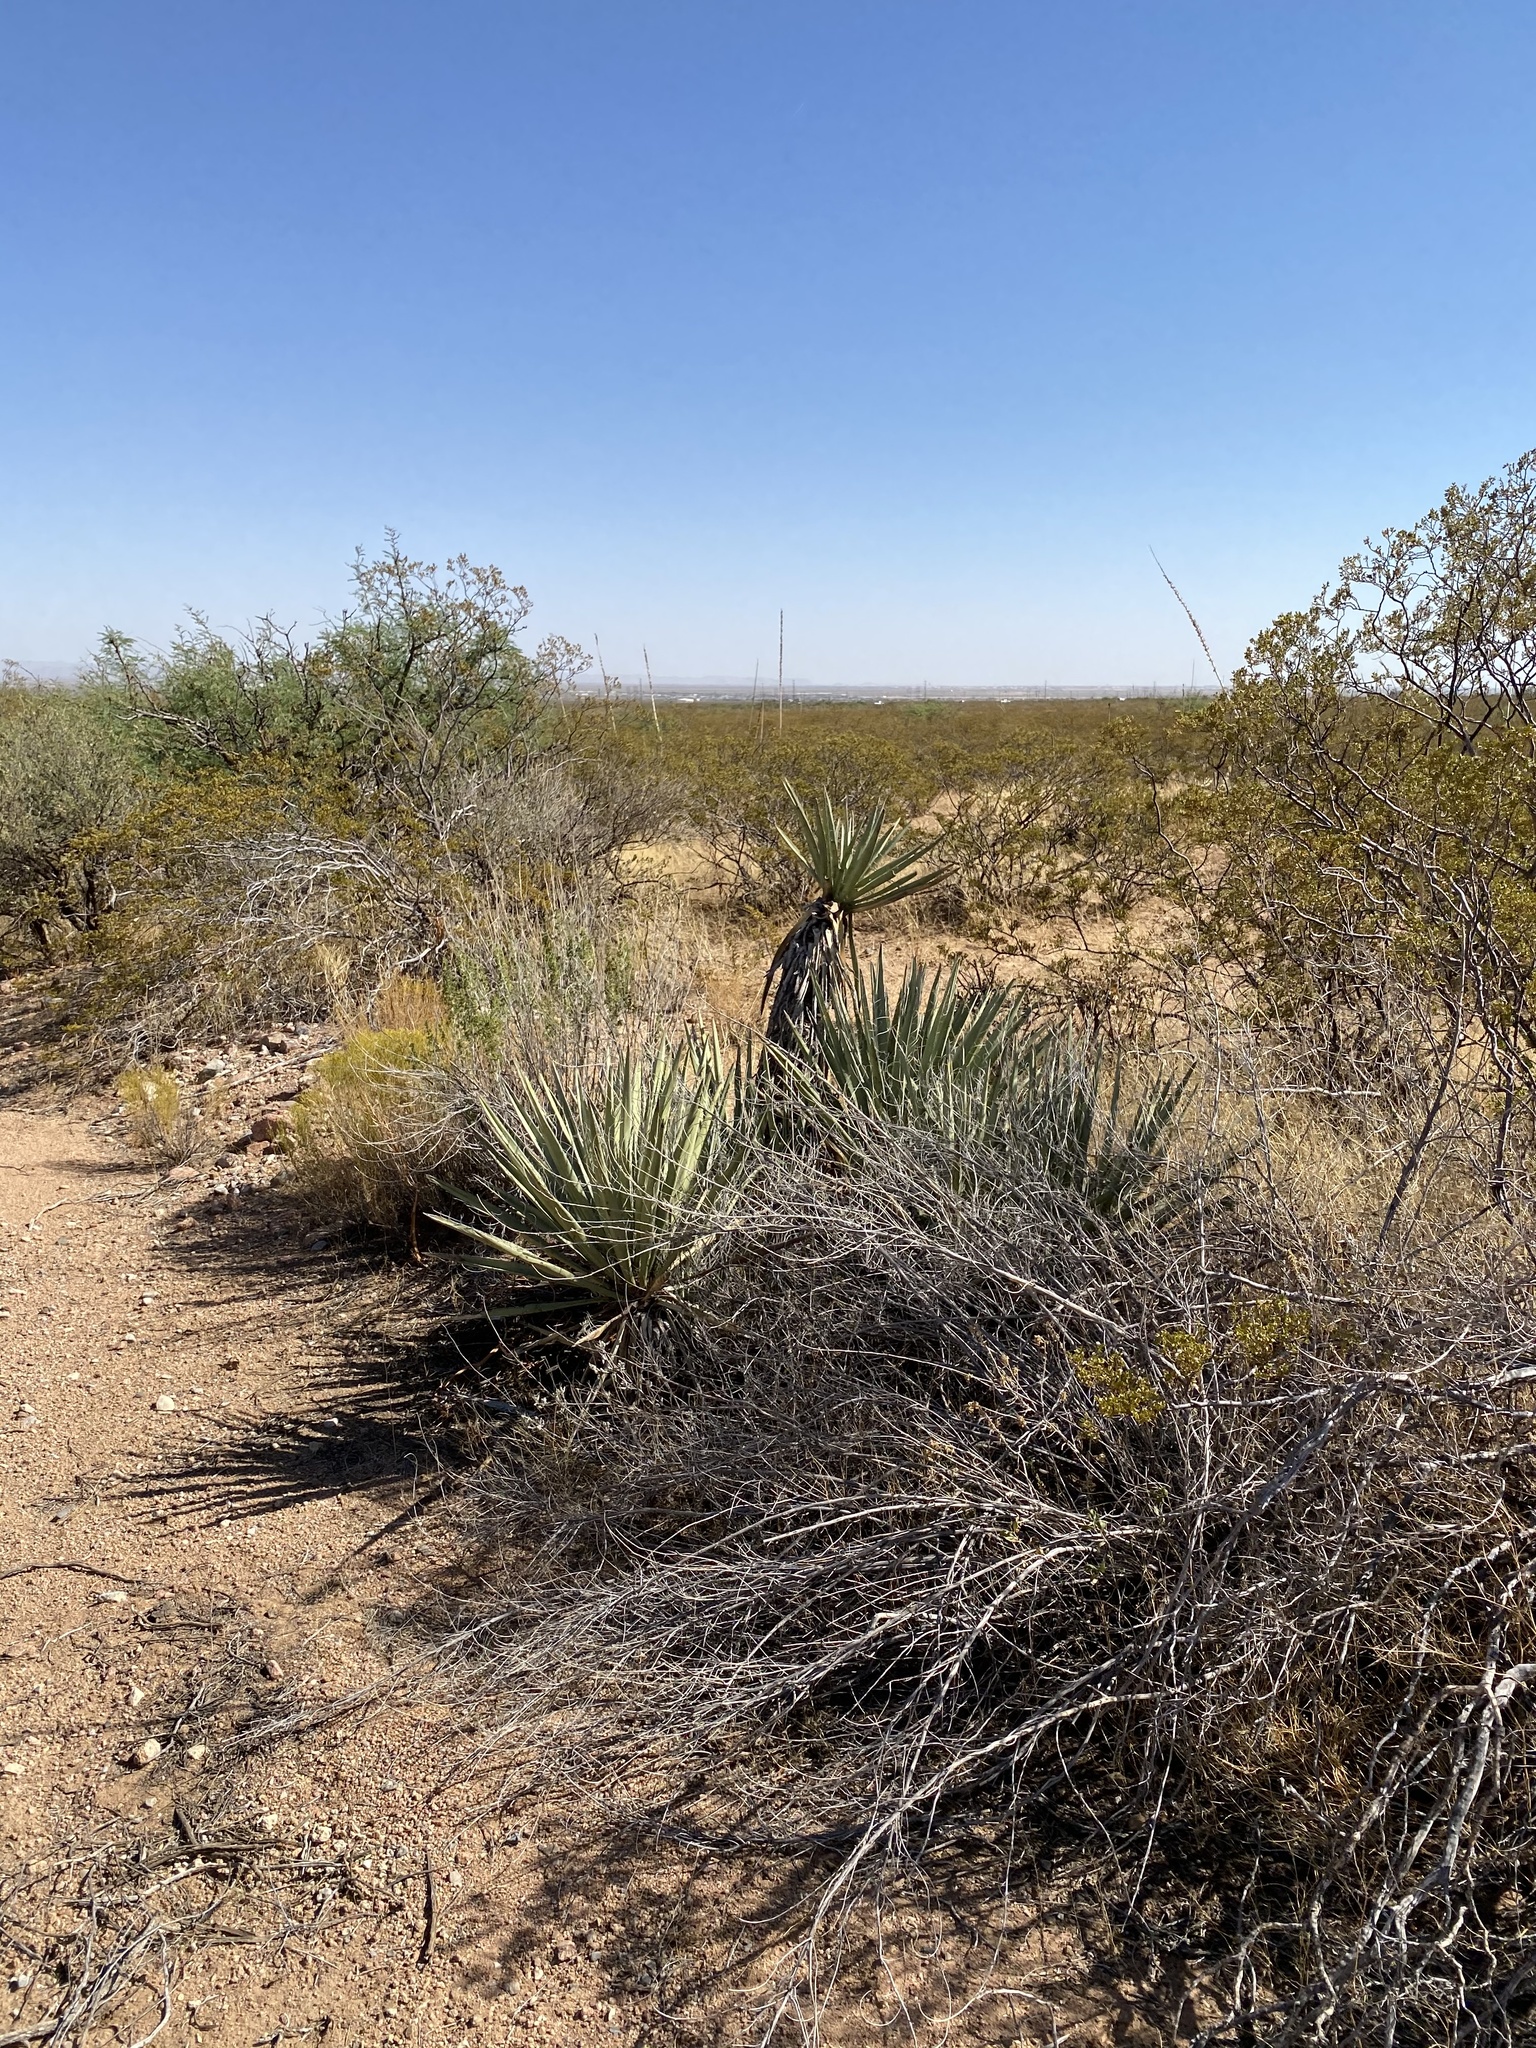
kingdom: Plantae
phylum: Tracheophyta
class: Liliopsida
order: Asparagales
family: Asparagaceae
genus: Yucca
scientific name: Yucca baccata
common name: Banana yucca
